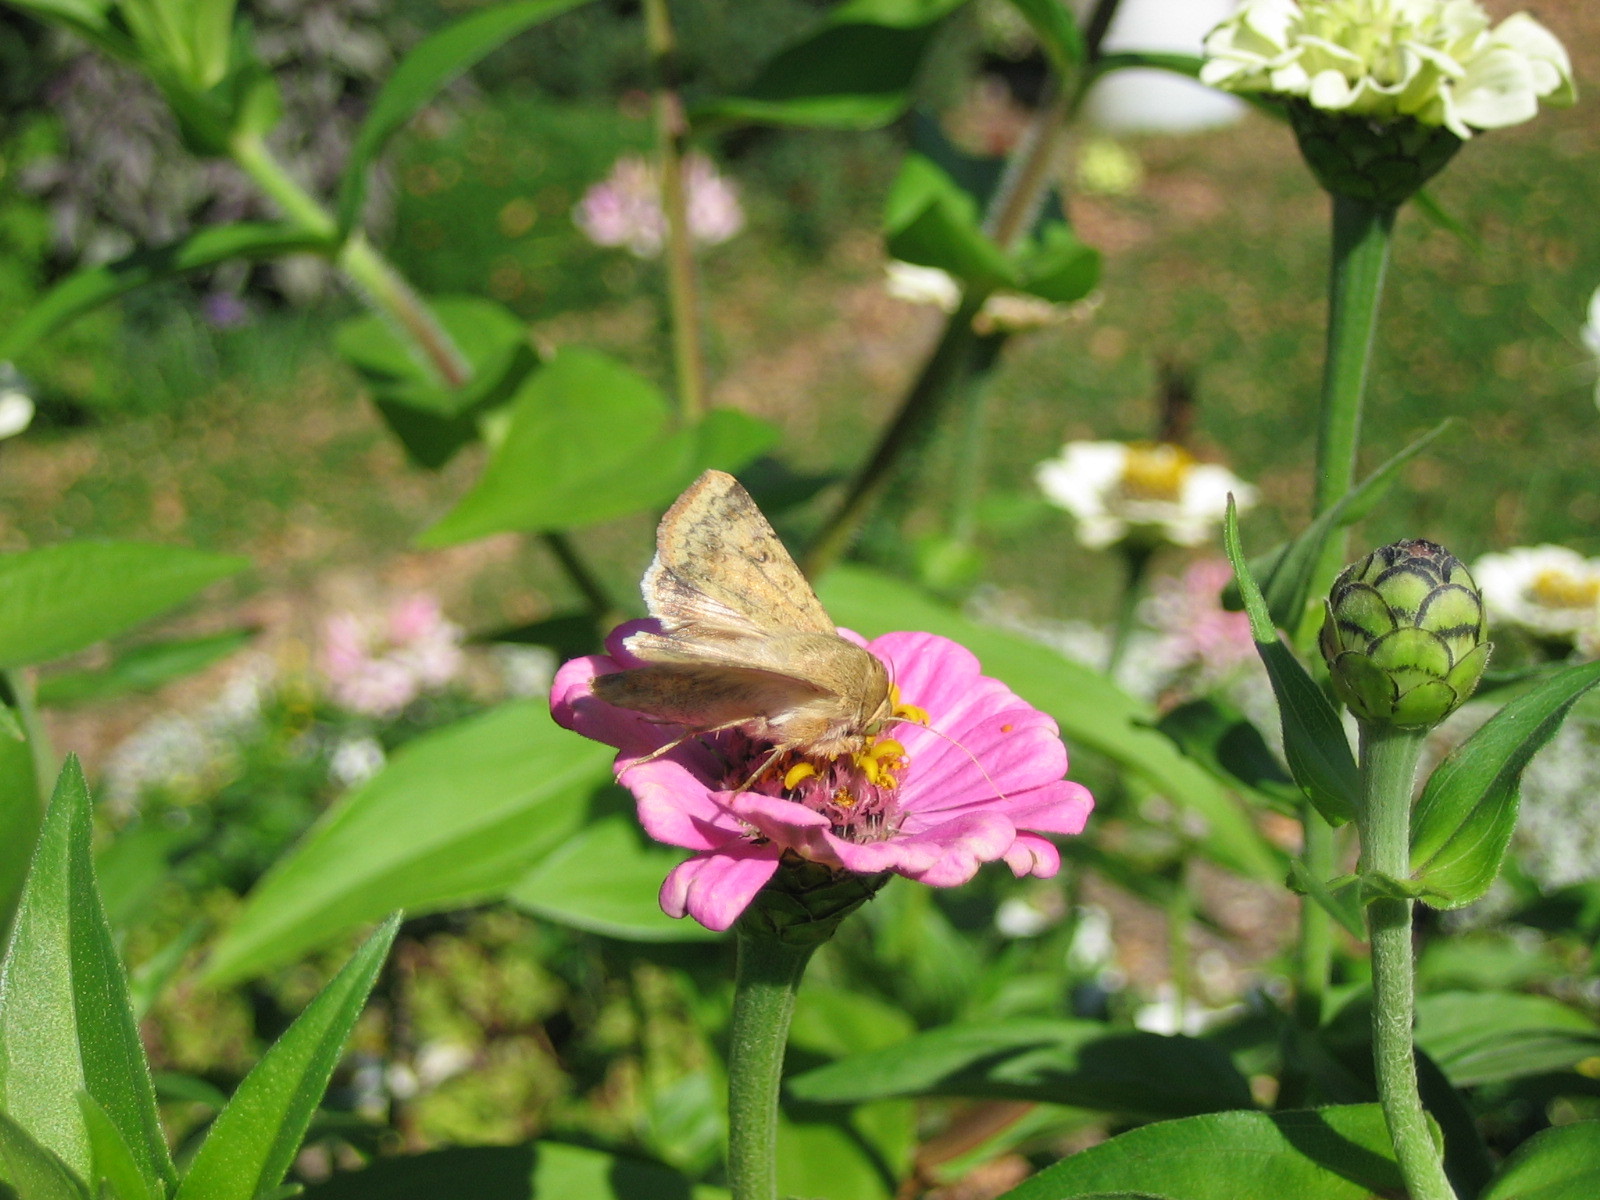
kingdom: Animalia
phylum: Arthropoda
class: Insecta
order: Lepidoptera
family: Noctuidae
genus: Helicoverpa
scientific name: Helicoverpa zea
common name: Bollworm
